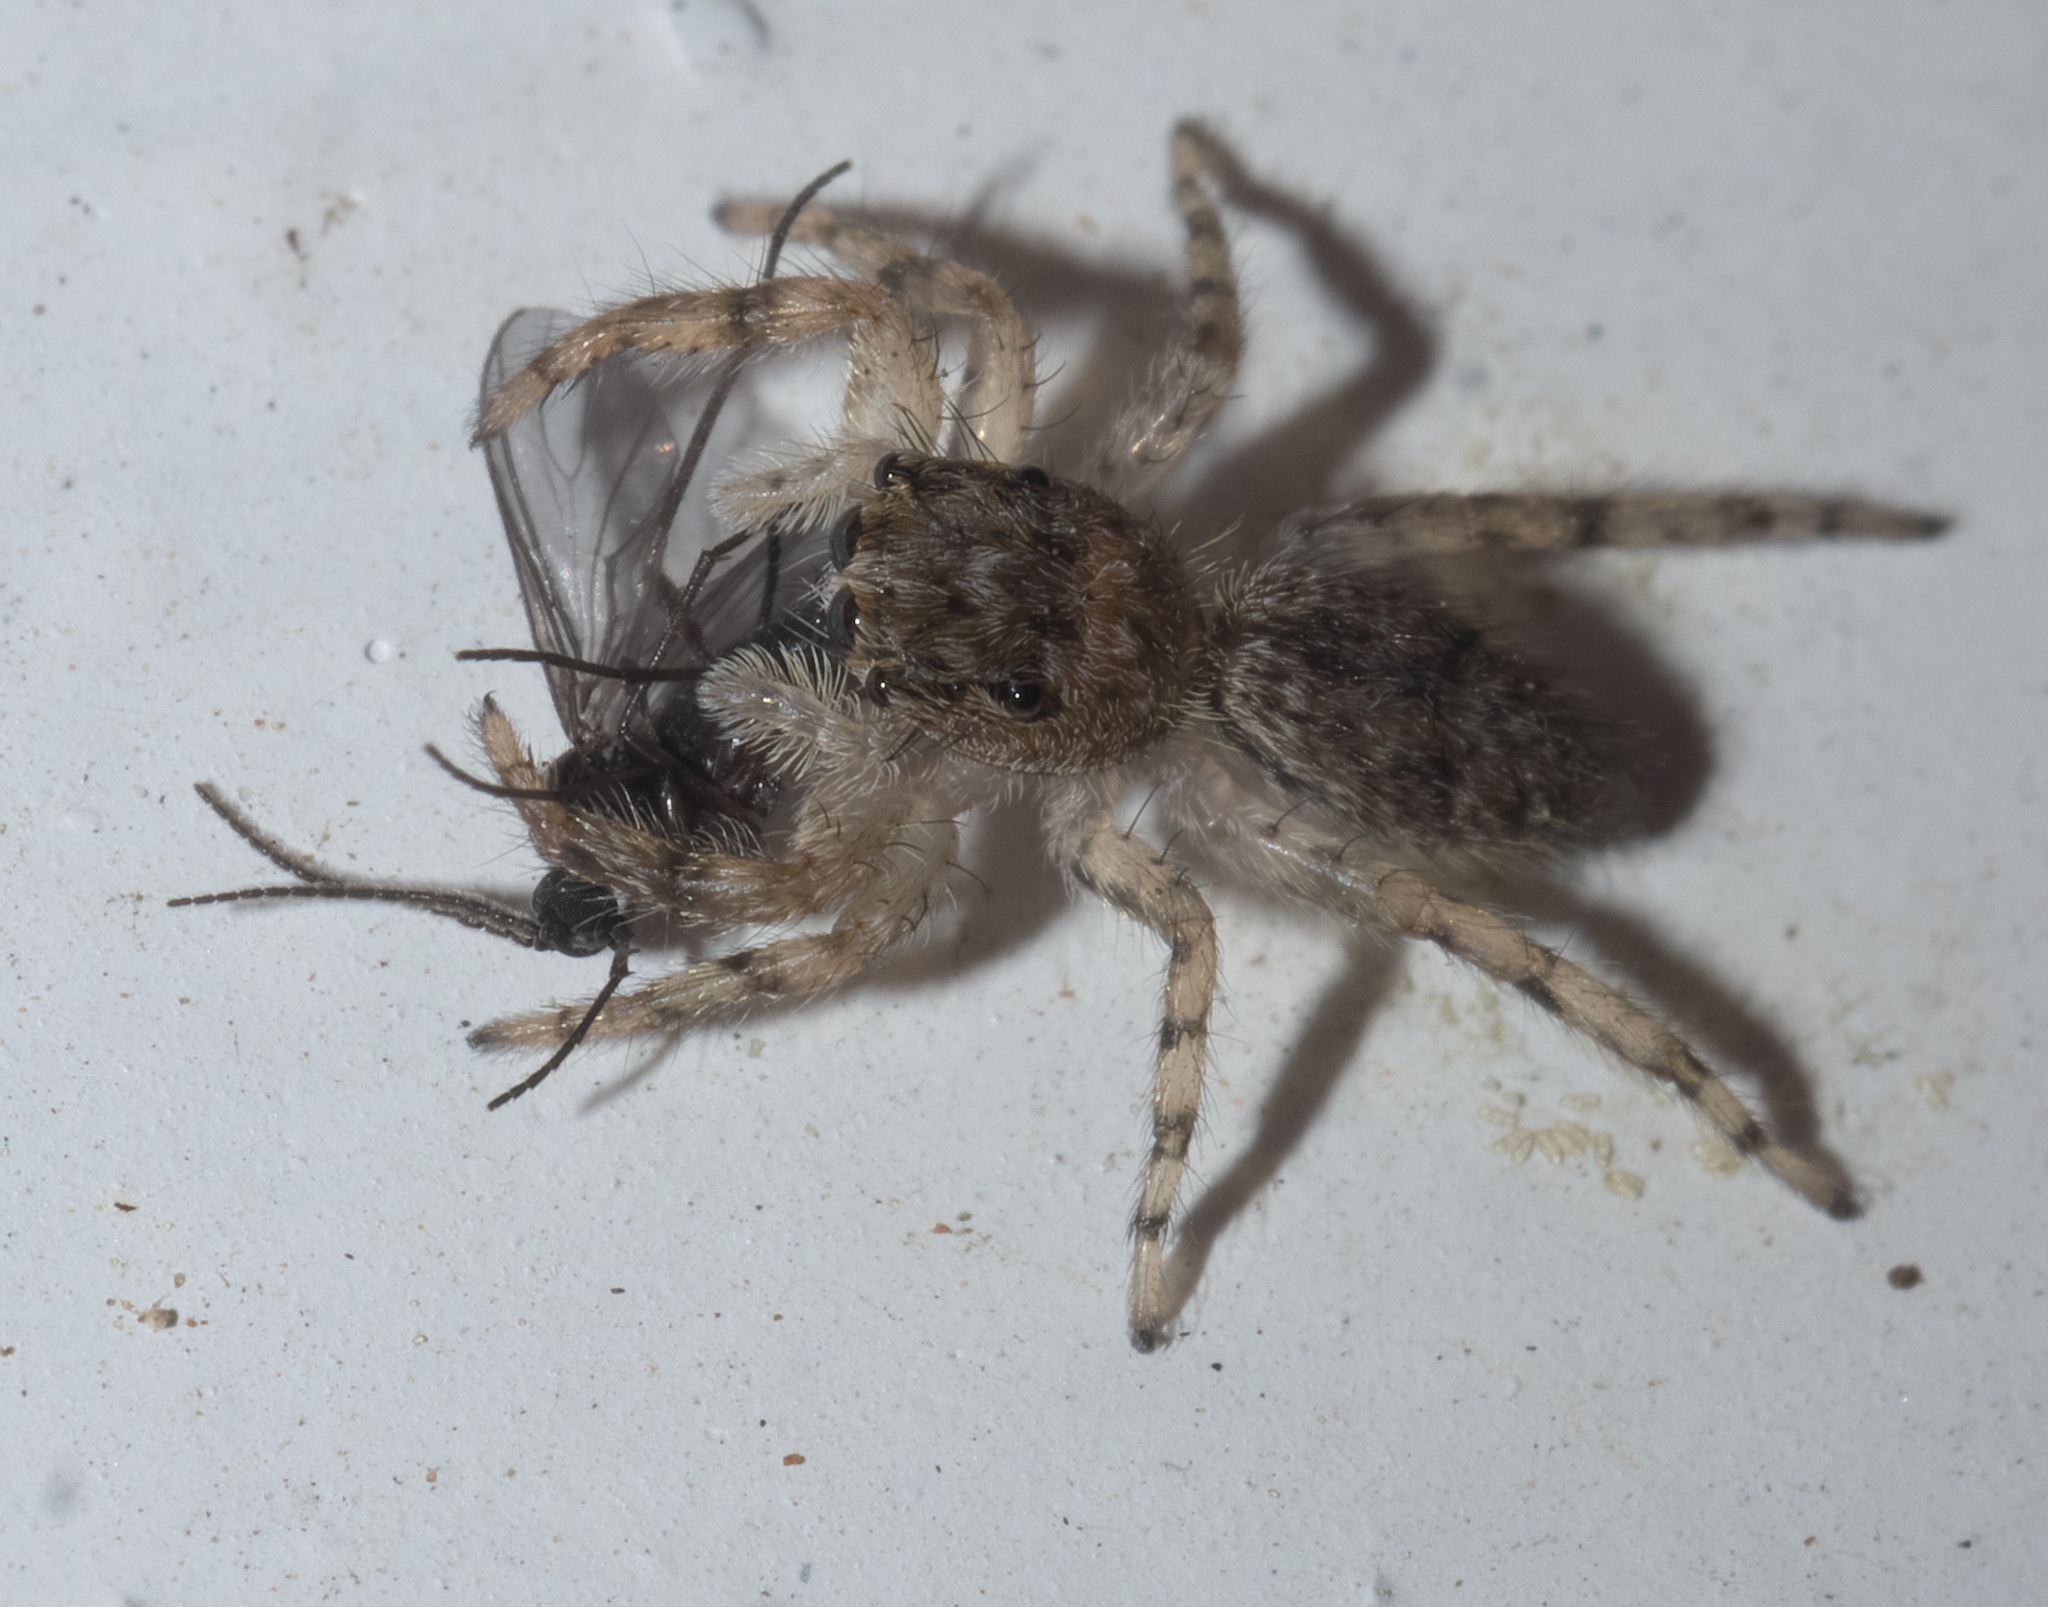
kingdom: Animalia
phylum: Arthropoda
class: Arachnida
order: Araneae
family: Salticidae
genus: Platycryptus
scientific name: Platycryptus undatus
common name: Tan jumping spider
